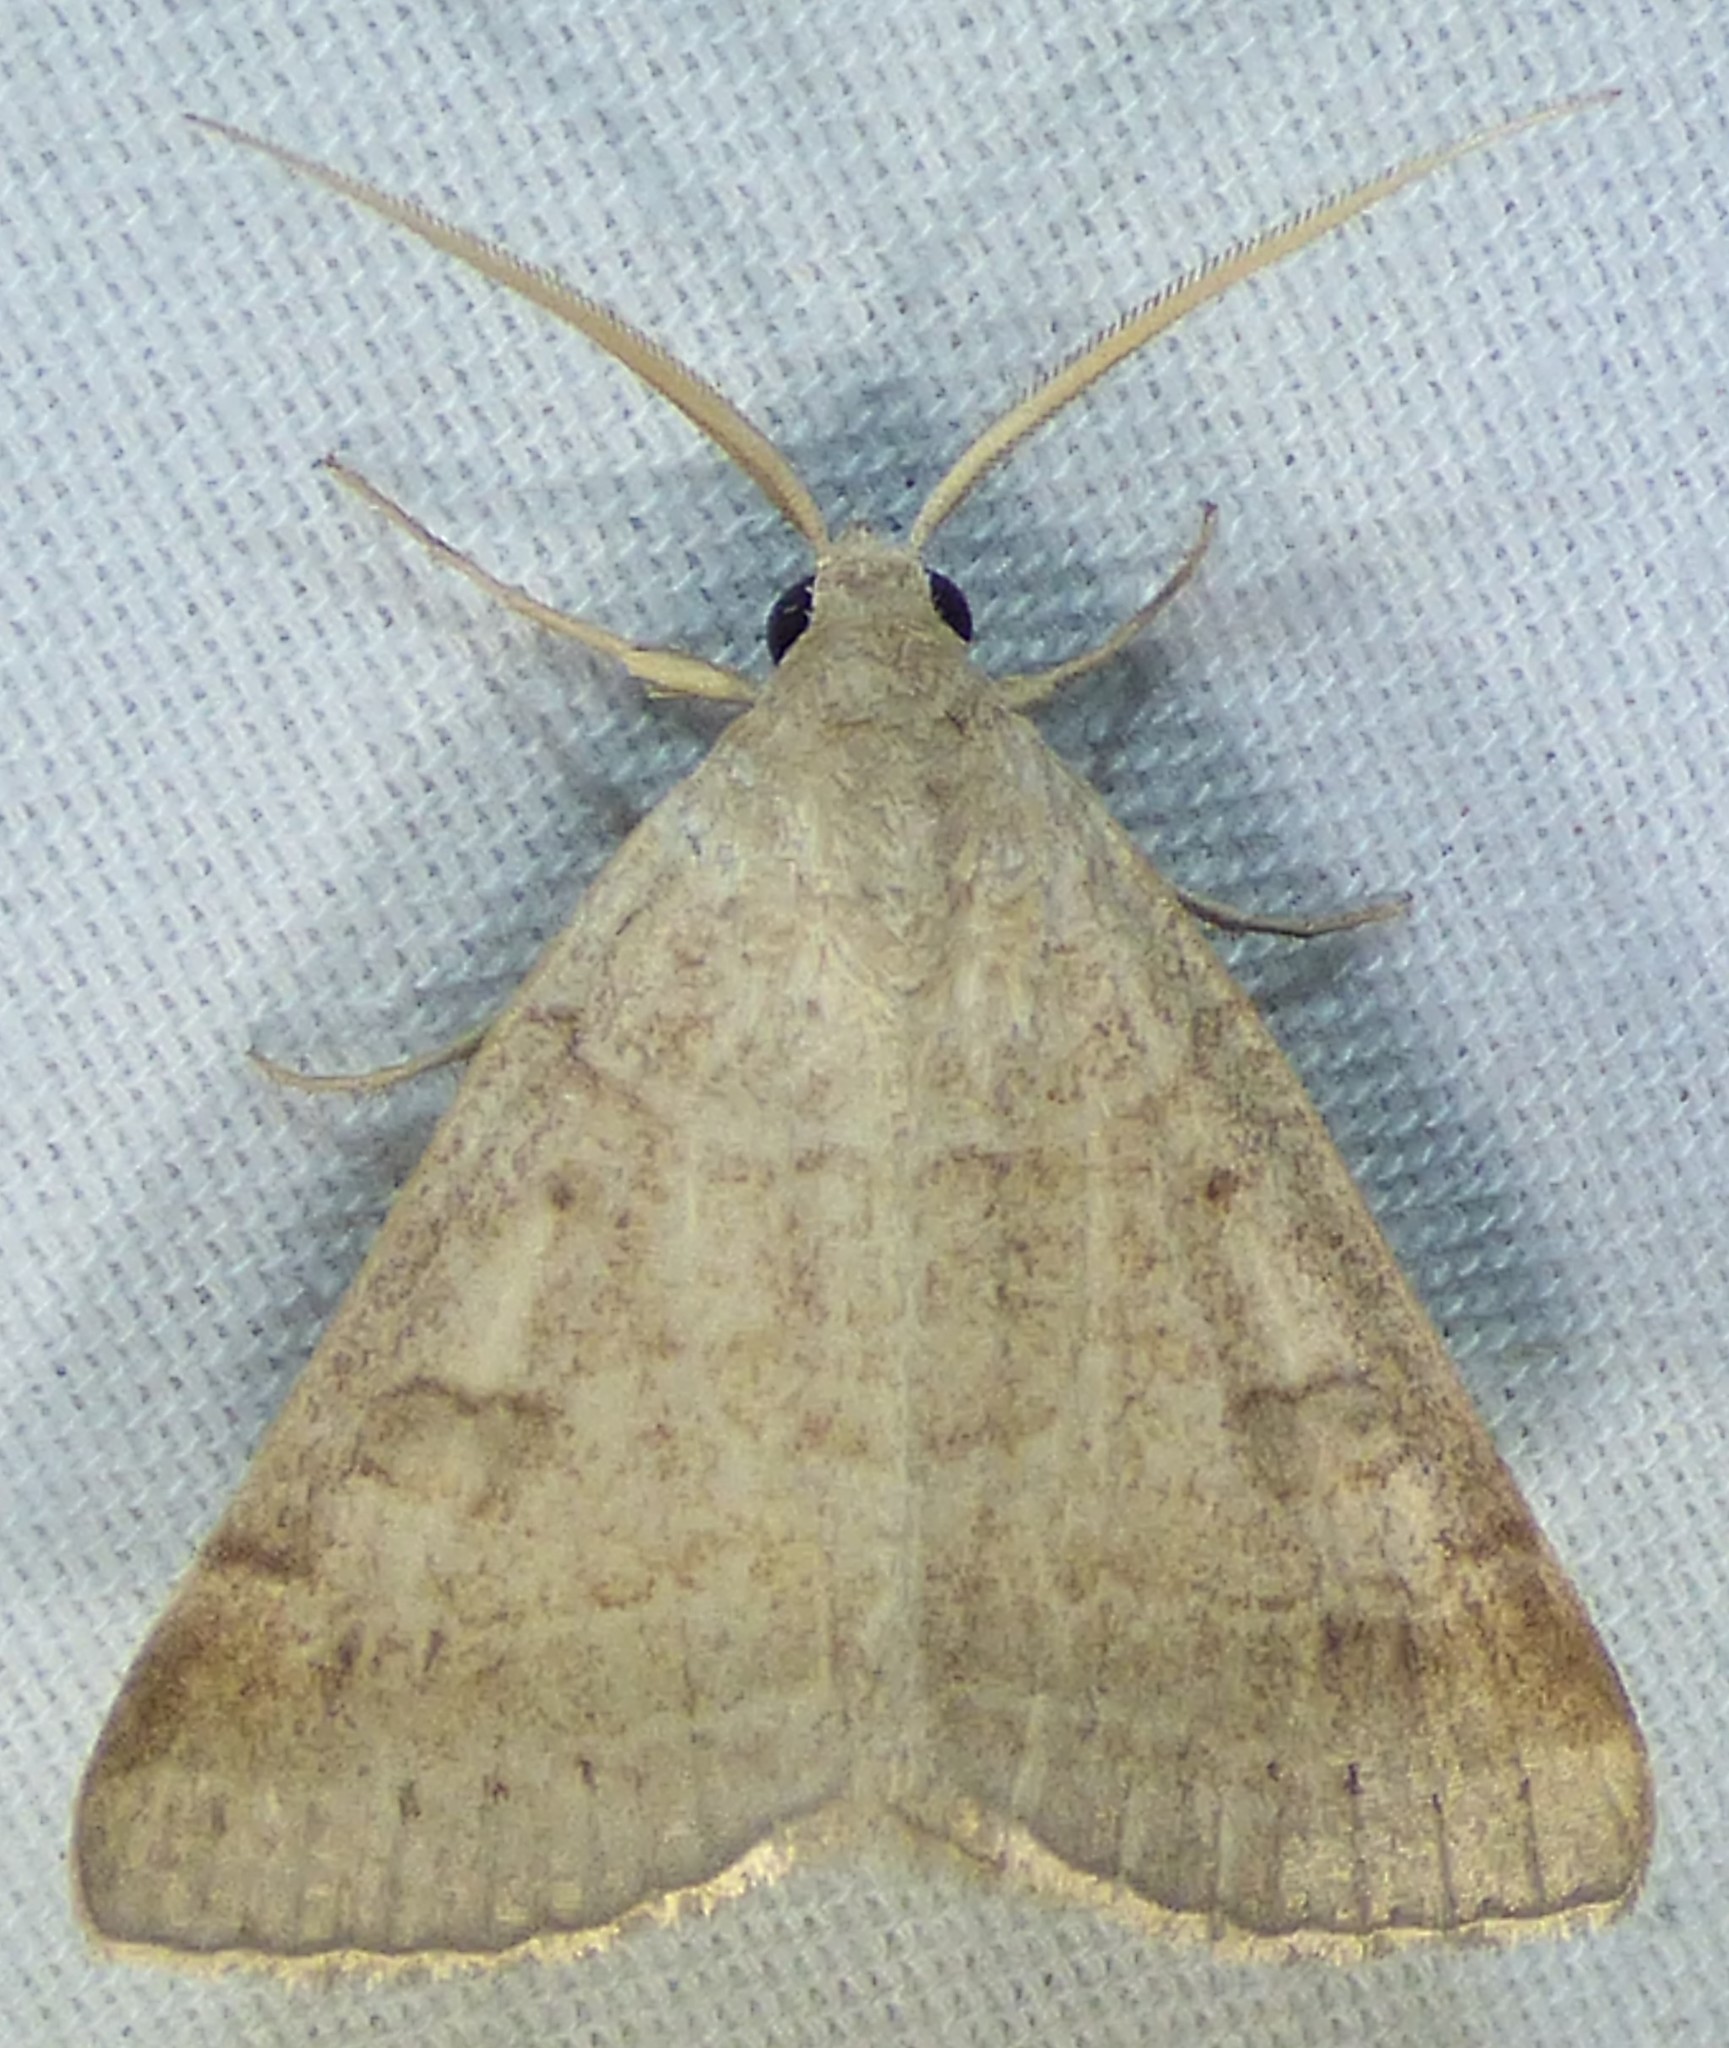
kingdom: Animalia
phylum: Arthropoda
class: Insecta
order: Lepidoptera
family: Erebidae
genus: Caenurgia
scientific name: Caenurgia chloropha
